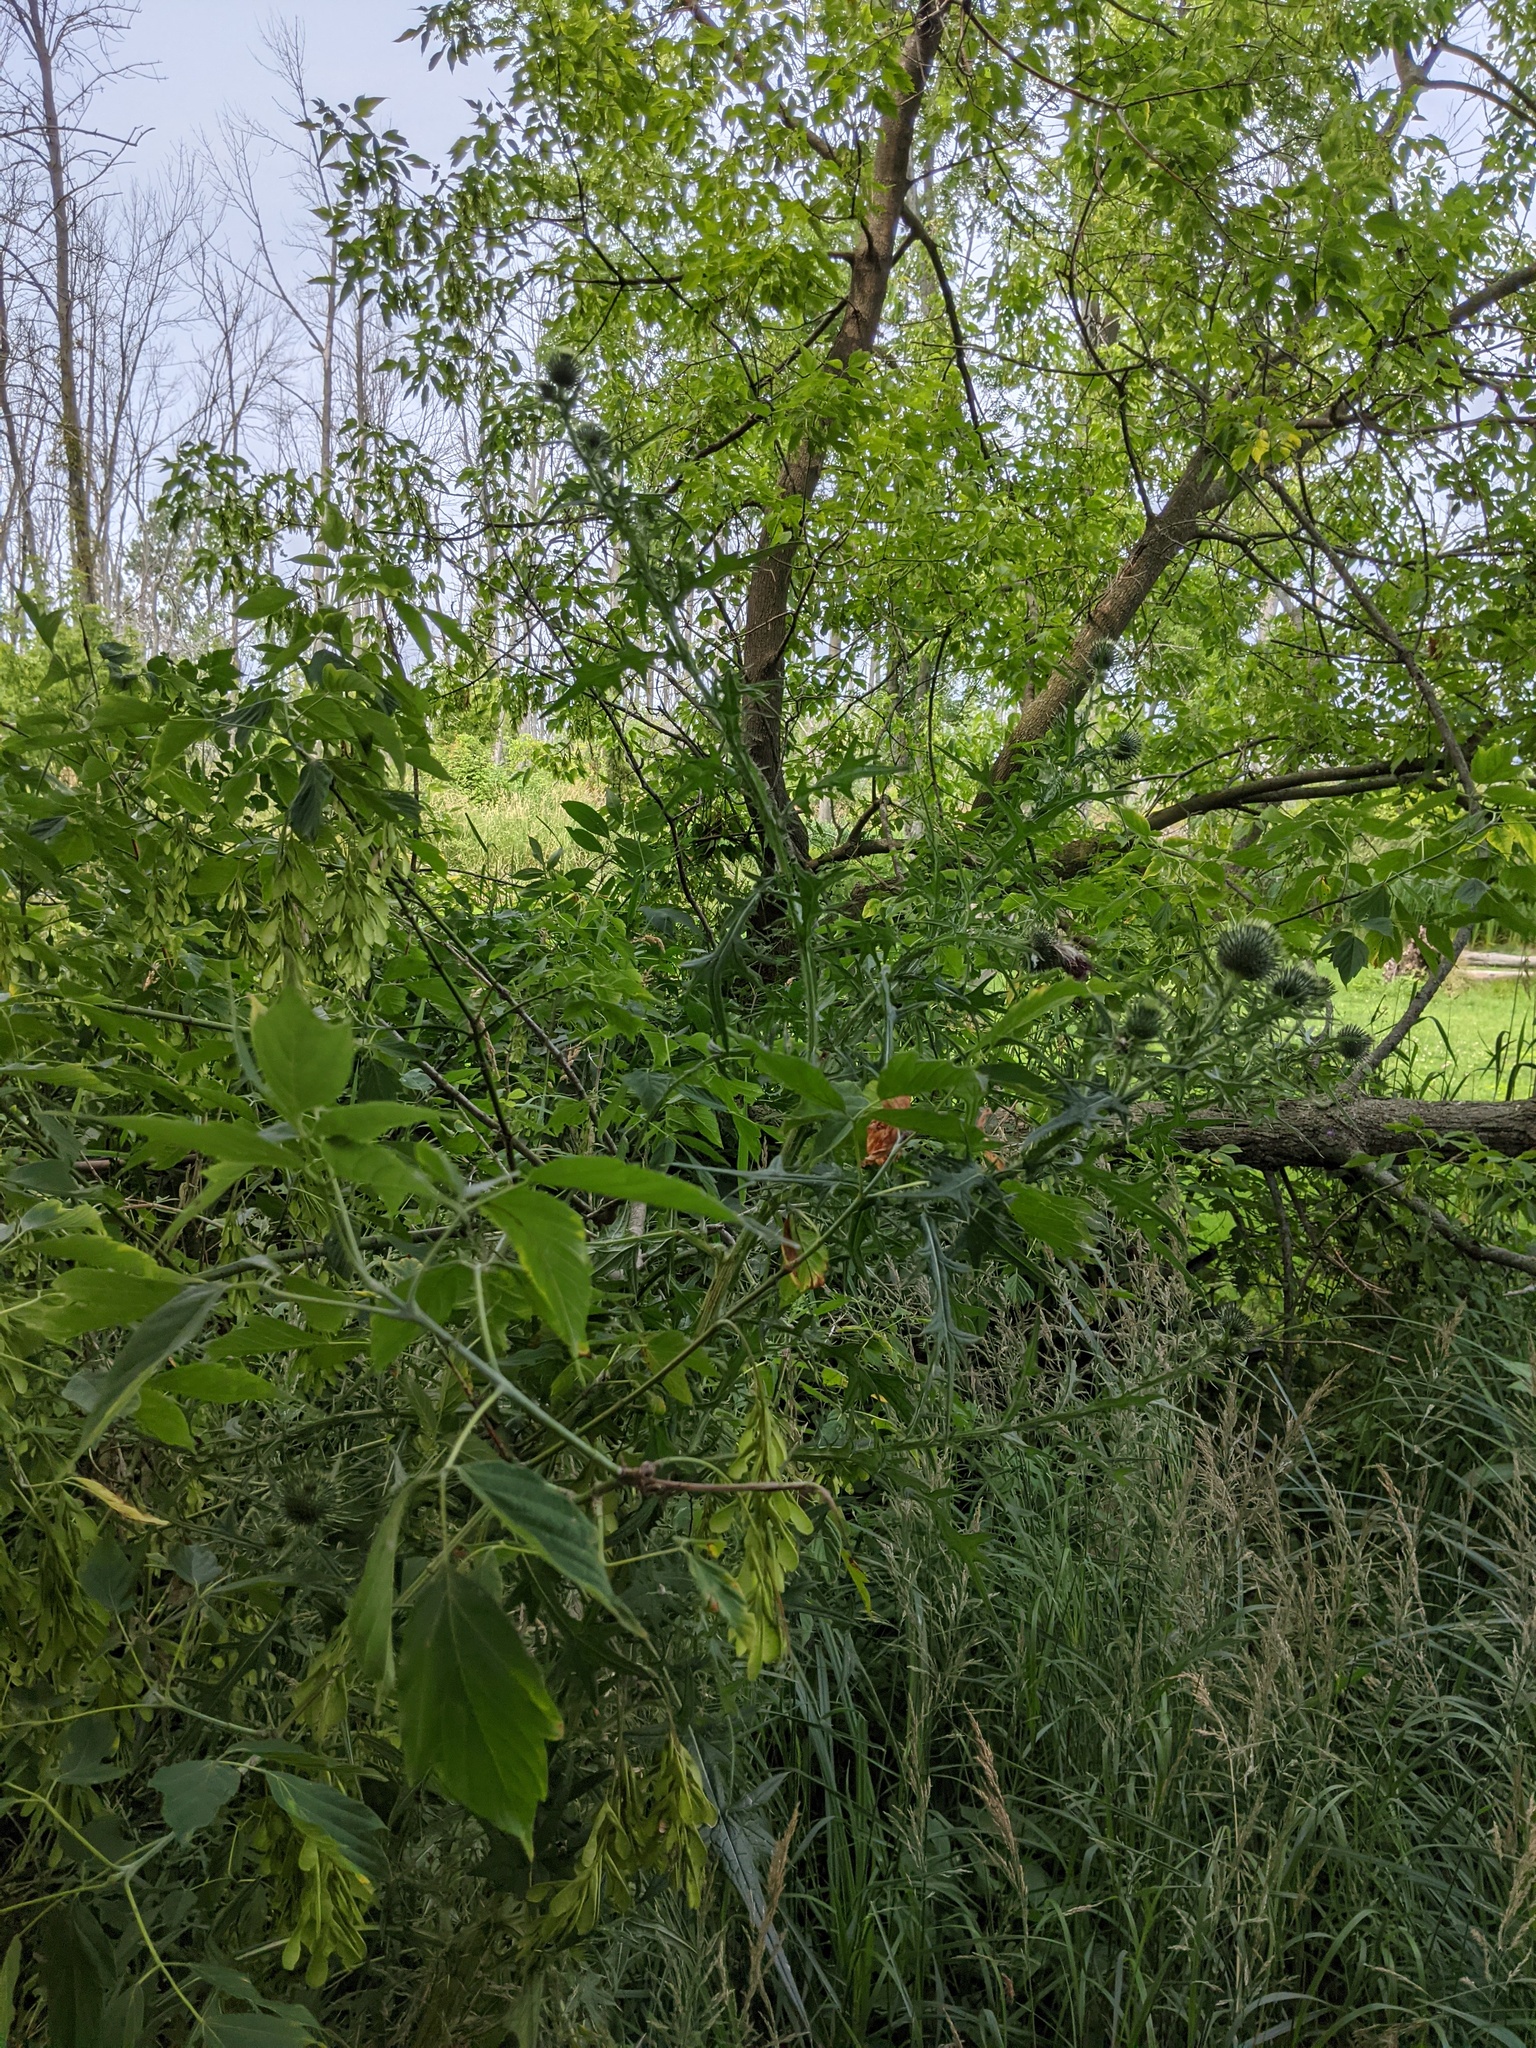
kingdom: Plantae
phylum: Tracheophyta
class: Magnoliopsida
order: Asterales
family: Asteraceae
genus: Cirsium
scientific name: Cirsium vulgare
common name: Bull thistle
